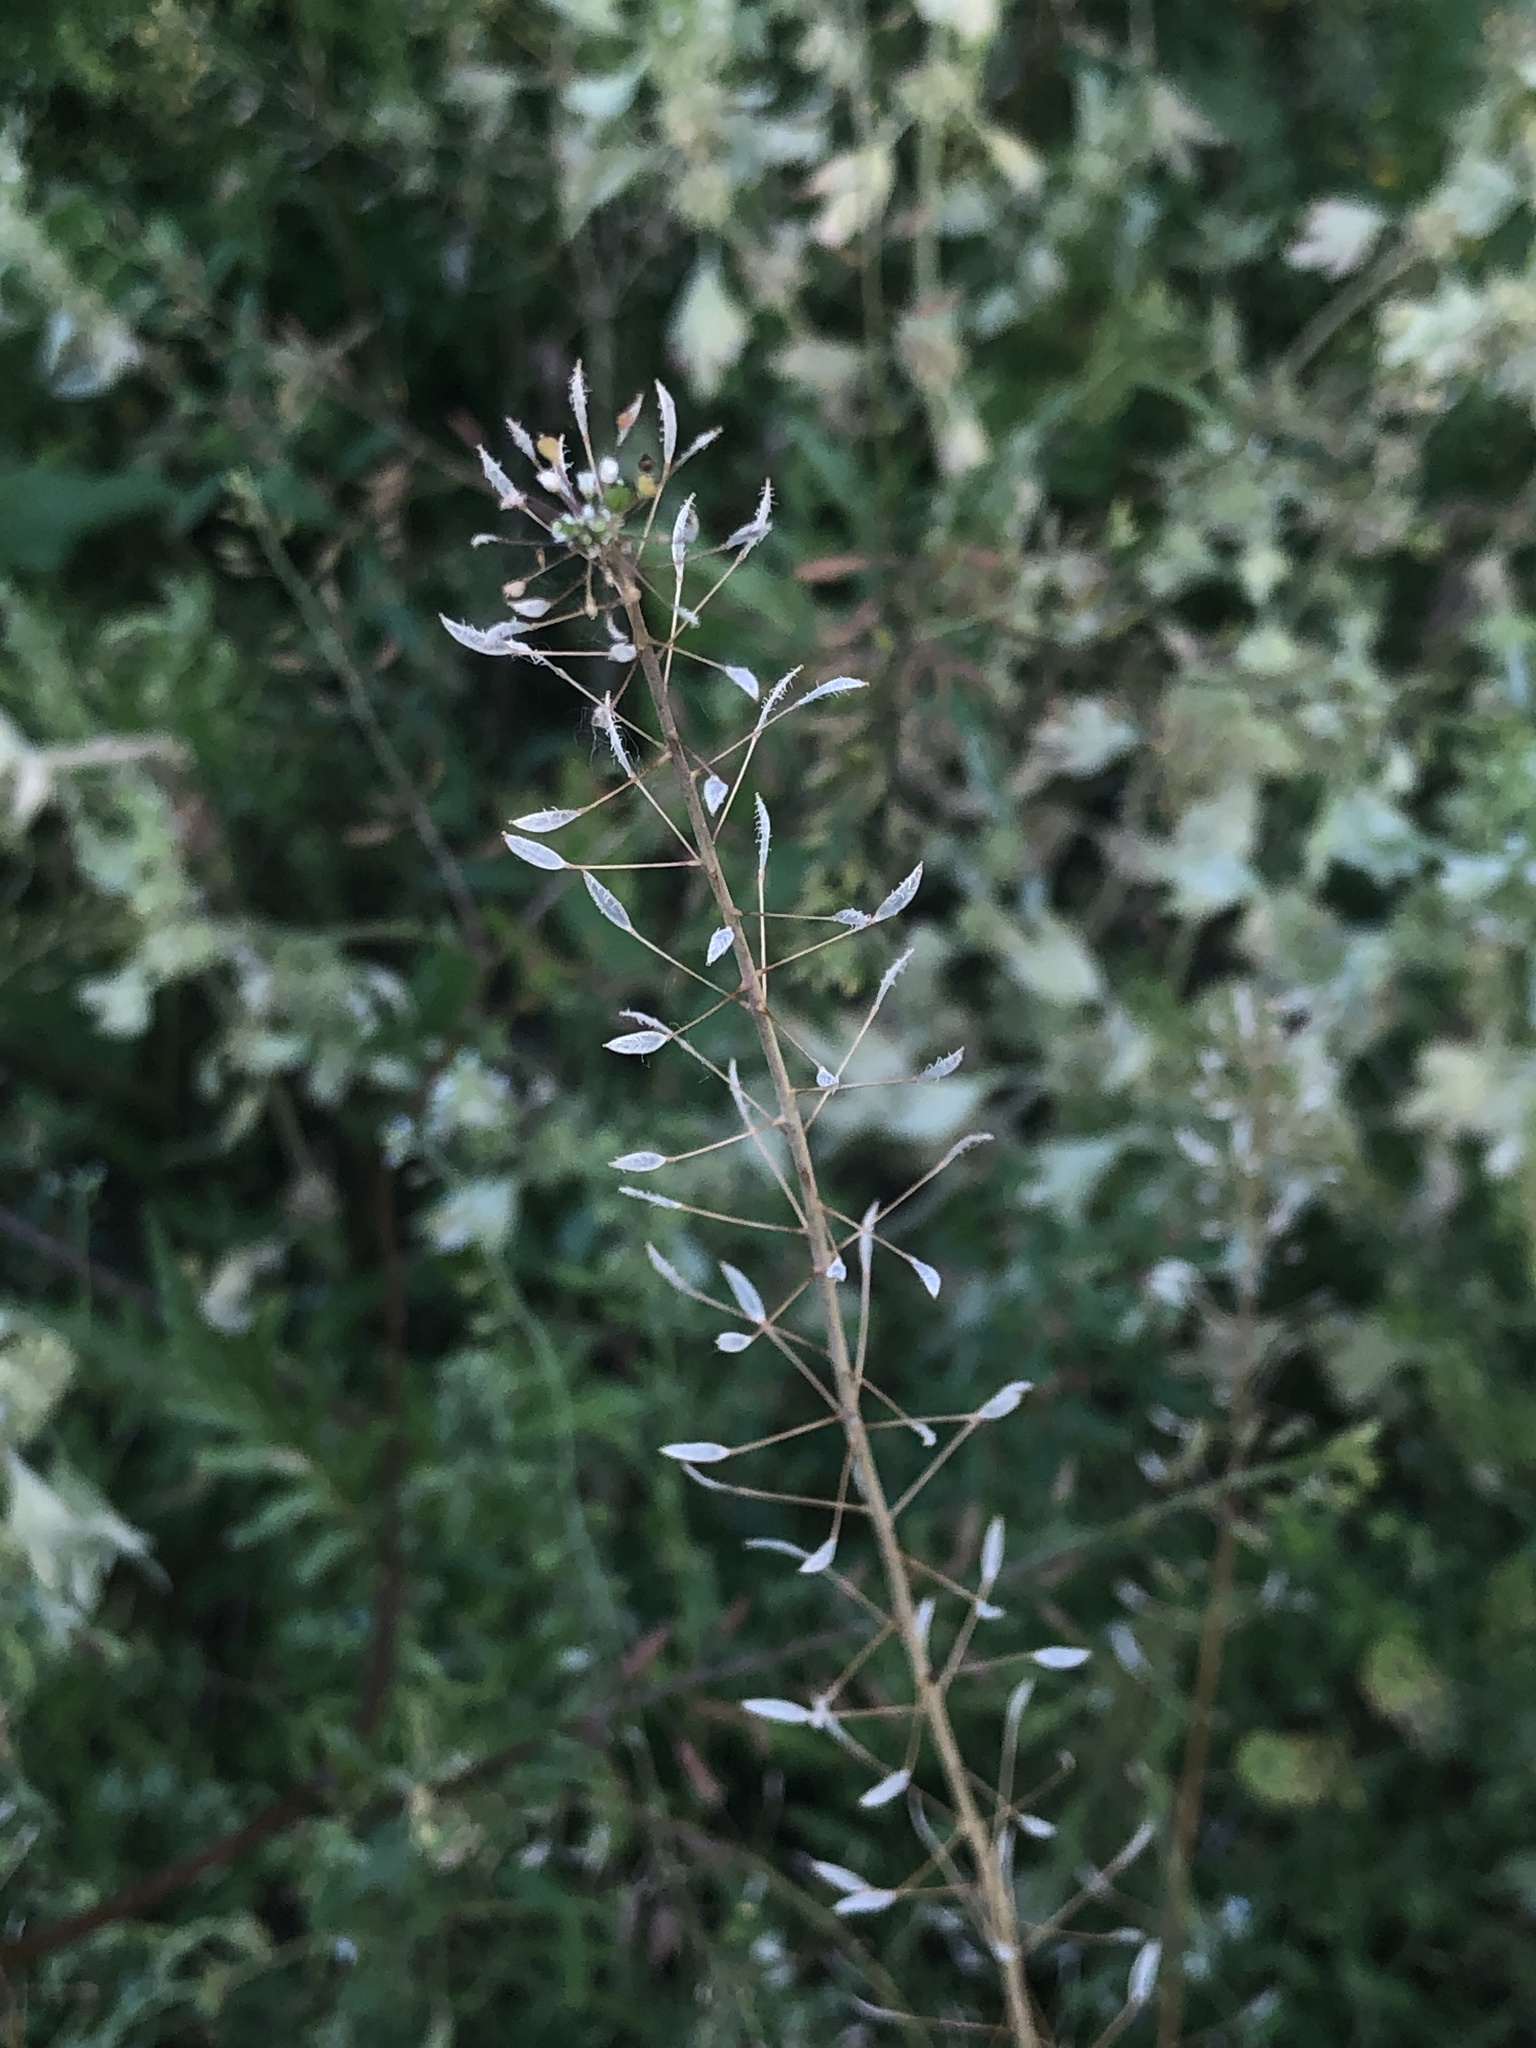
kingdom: Plantae
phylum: Tracheophyta
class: Magnoliopsida
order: Brassicales
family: Brassicaceae
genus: Capsella
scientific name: Capsella bursa-pastoris
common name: Shepherd's purse
